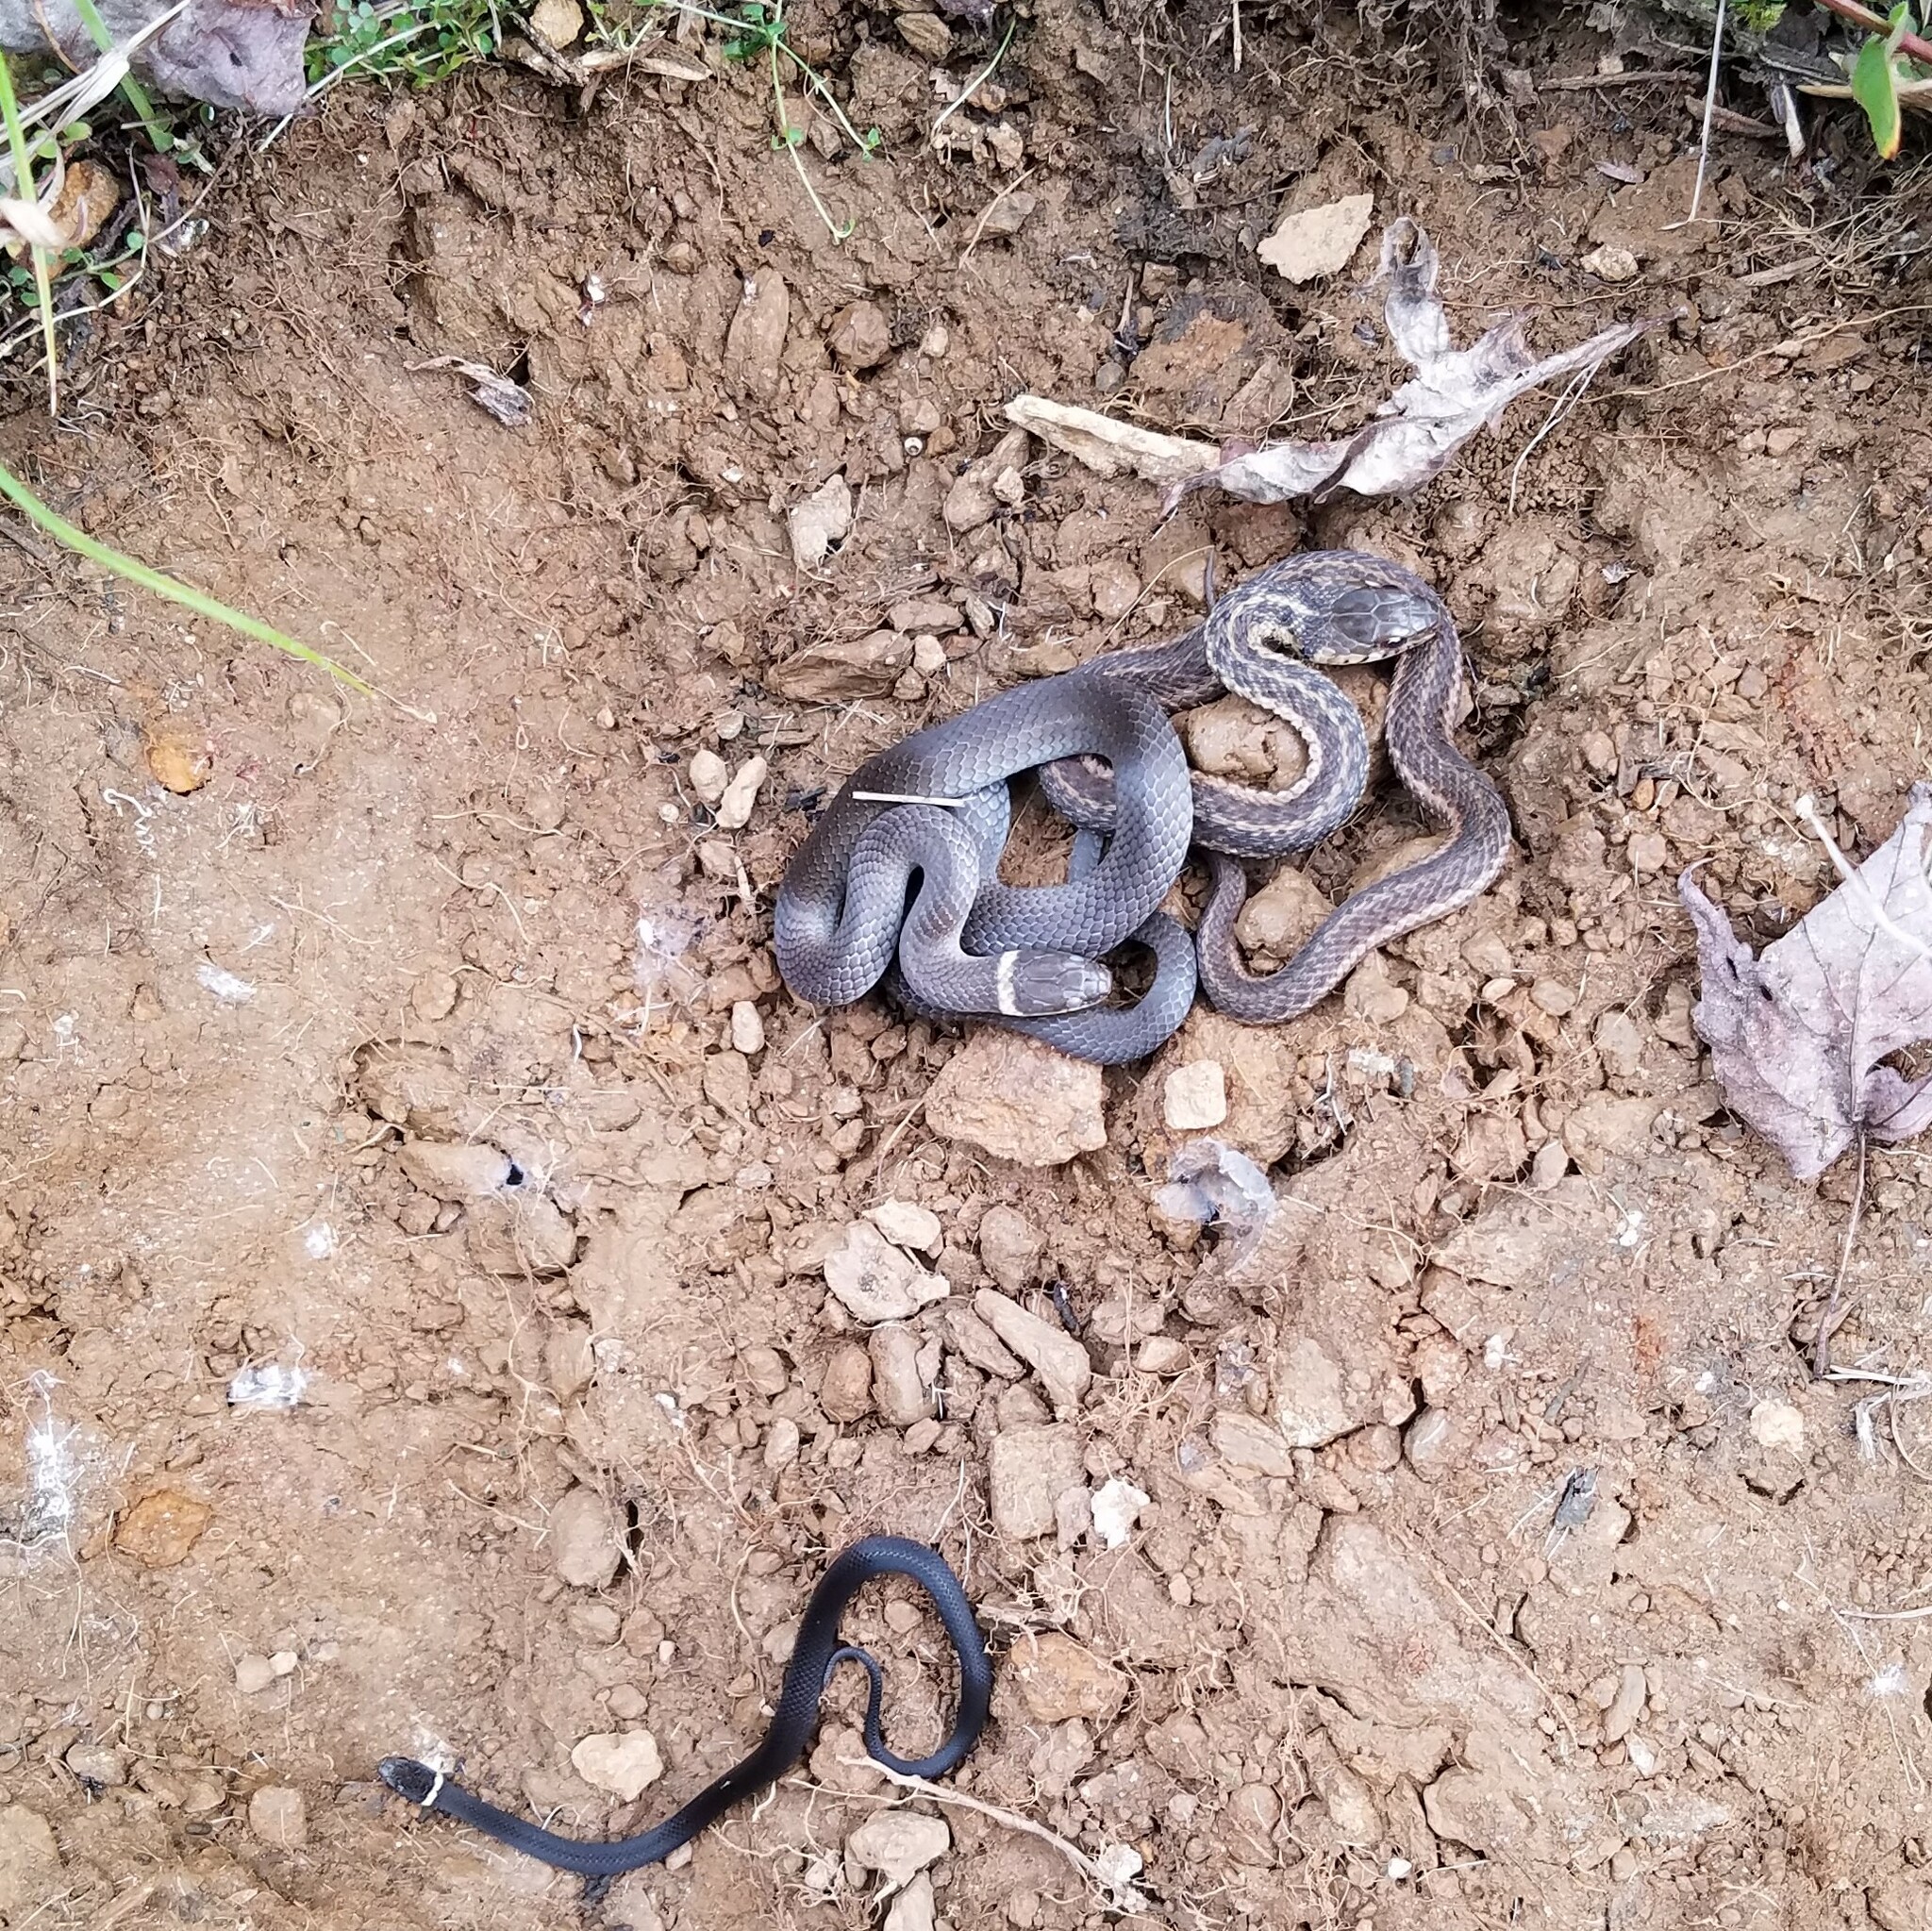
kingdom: Animalia
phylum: Chordata
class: Squamata
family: Colubridae
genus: Diadophis
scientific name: Diadophis punctatus
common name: Ringneck snake
